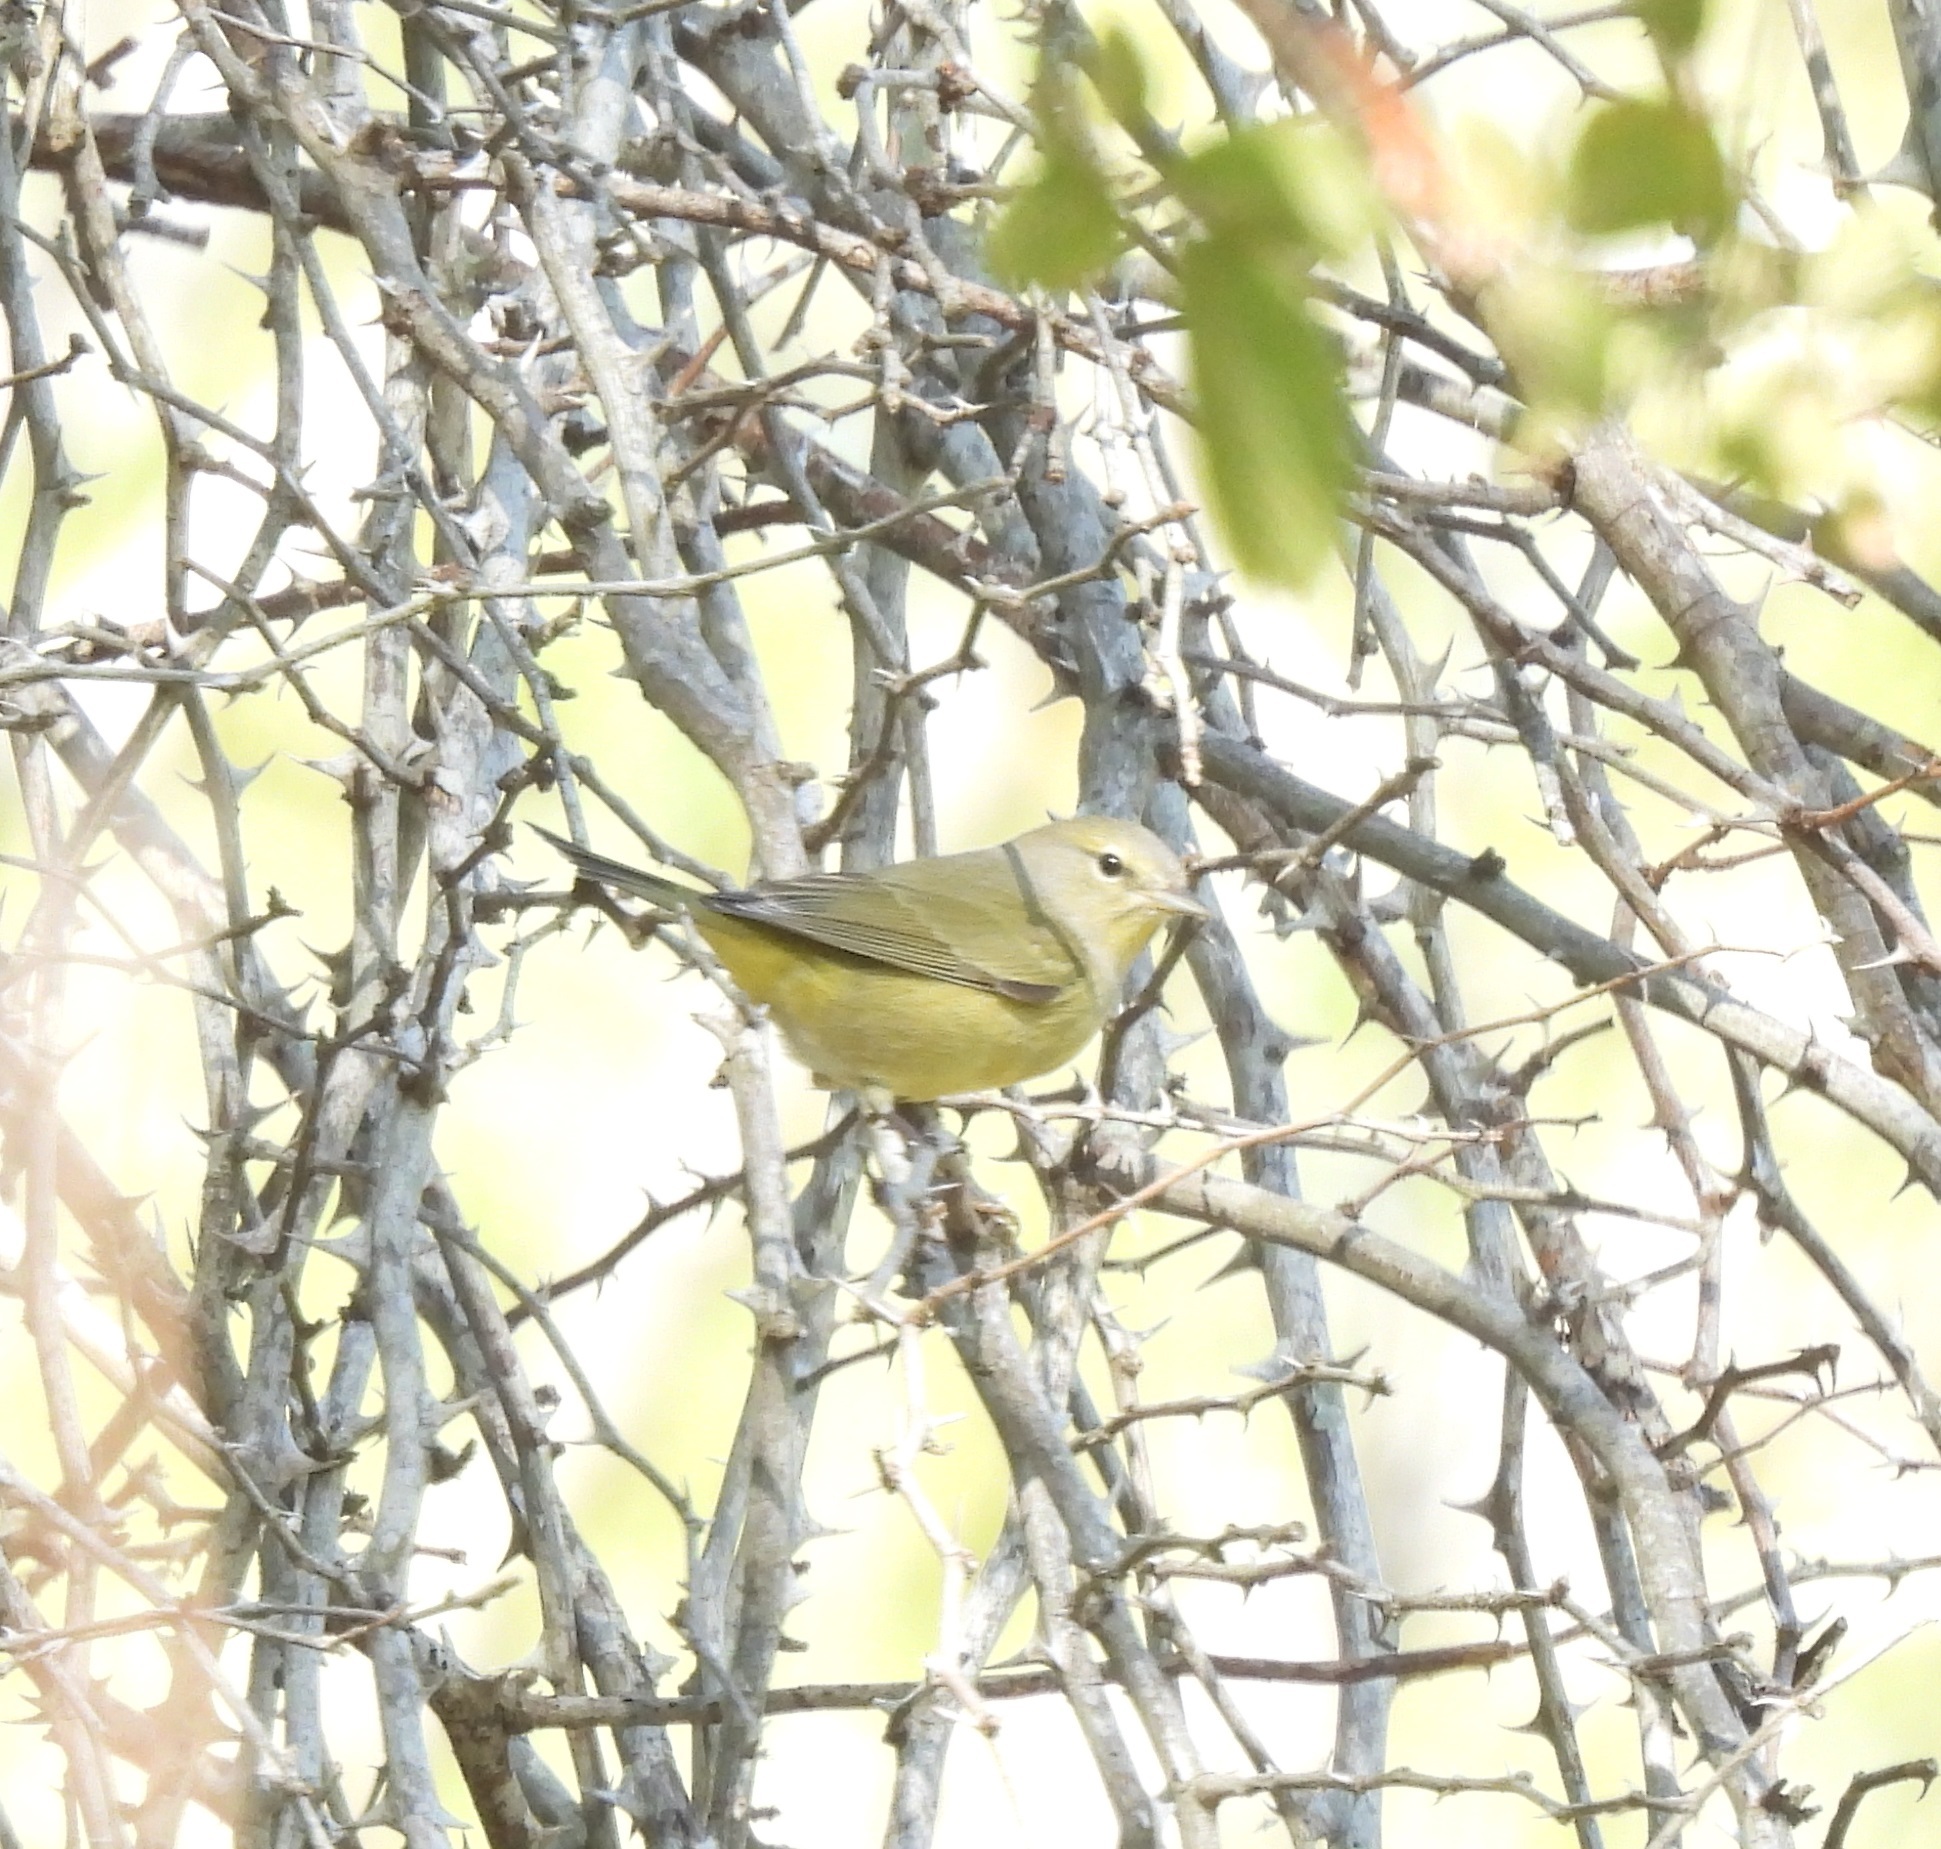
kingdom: Animalia
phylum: Chordata
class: Aves
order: Passeriformes
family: Parulidae
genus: Leiothlypis
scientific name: Leiothlypis celata
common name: Orange-crowned warbler
